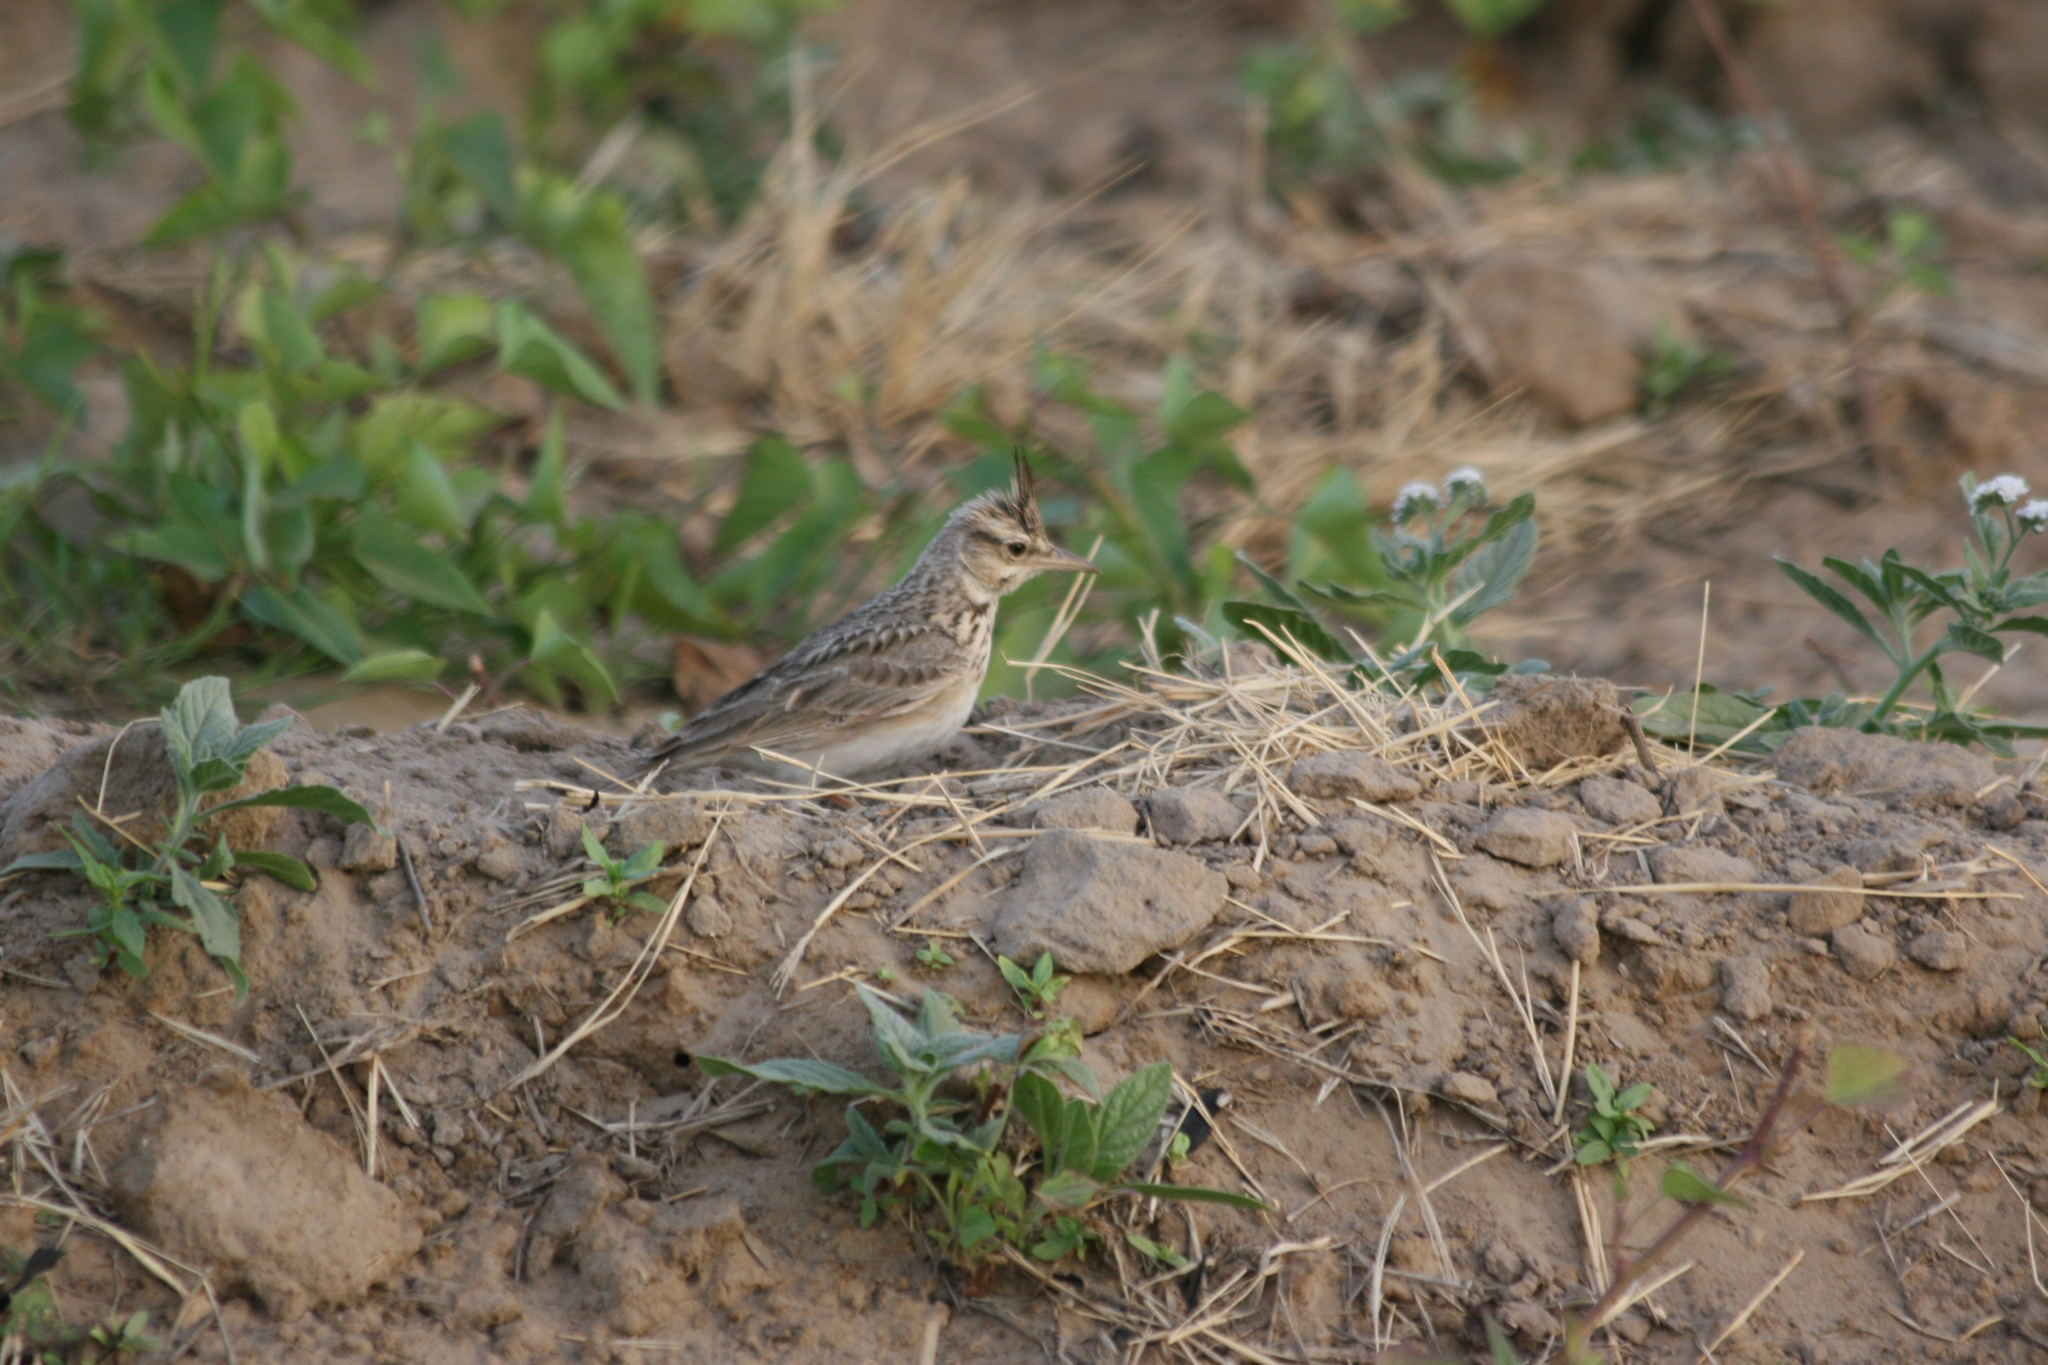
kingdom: Animalia
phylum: Chordata
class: Aves
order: Passeriformes
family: Alaudidae
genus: Galerida
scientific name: Galerida cristata
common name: Crested lark
